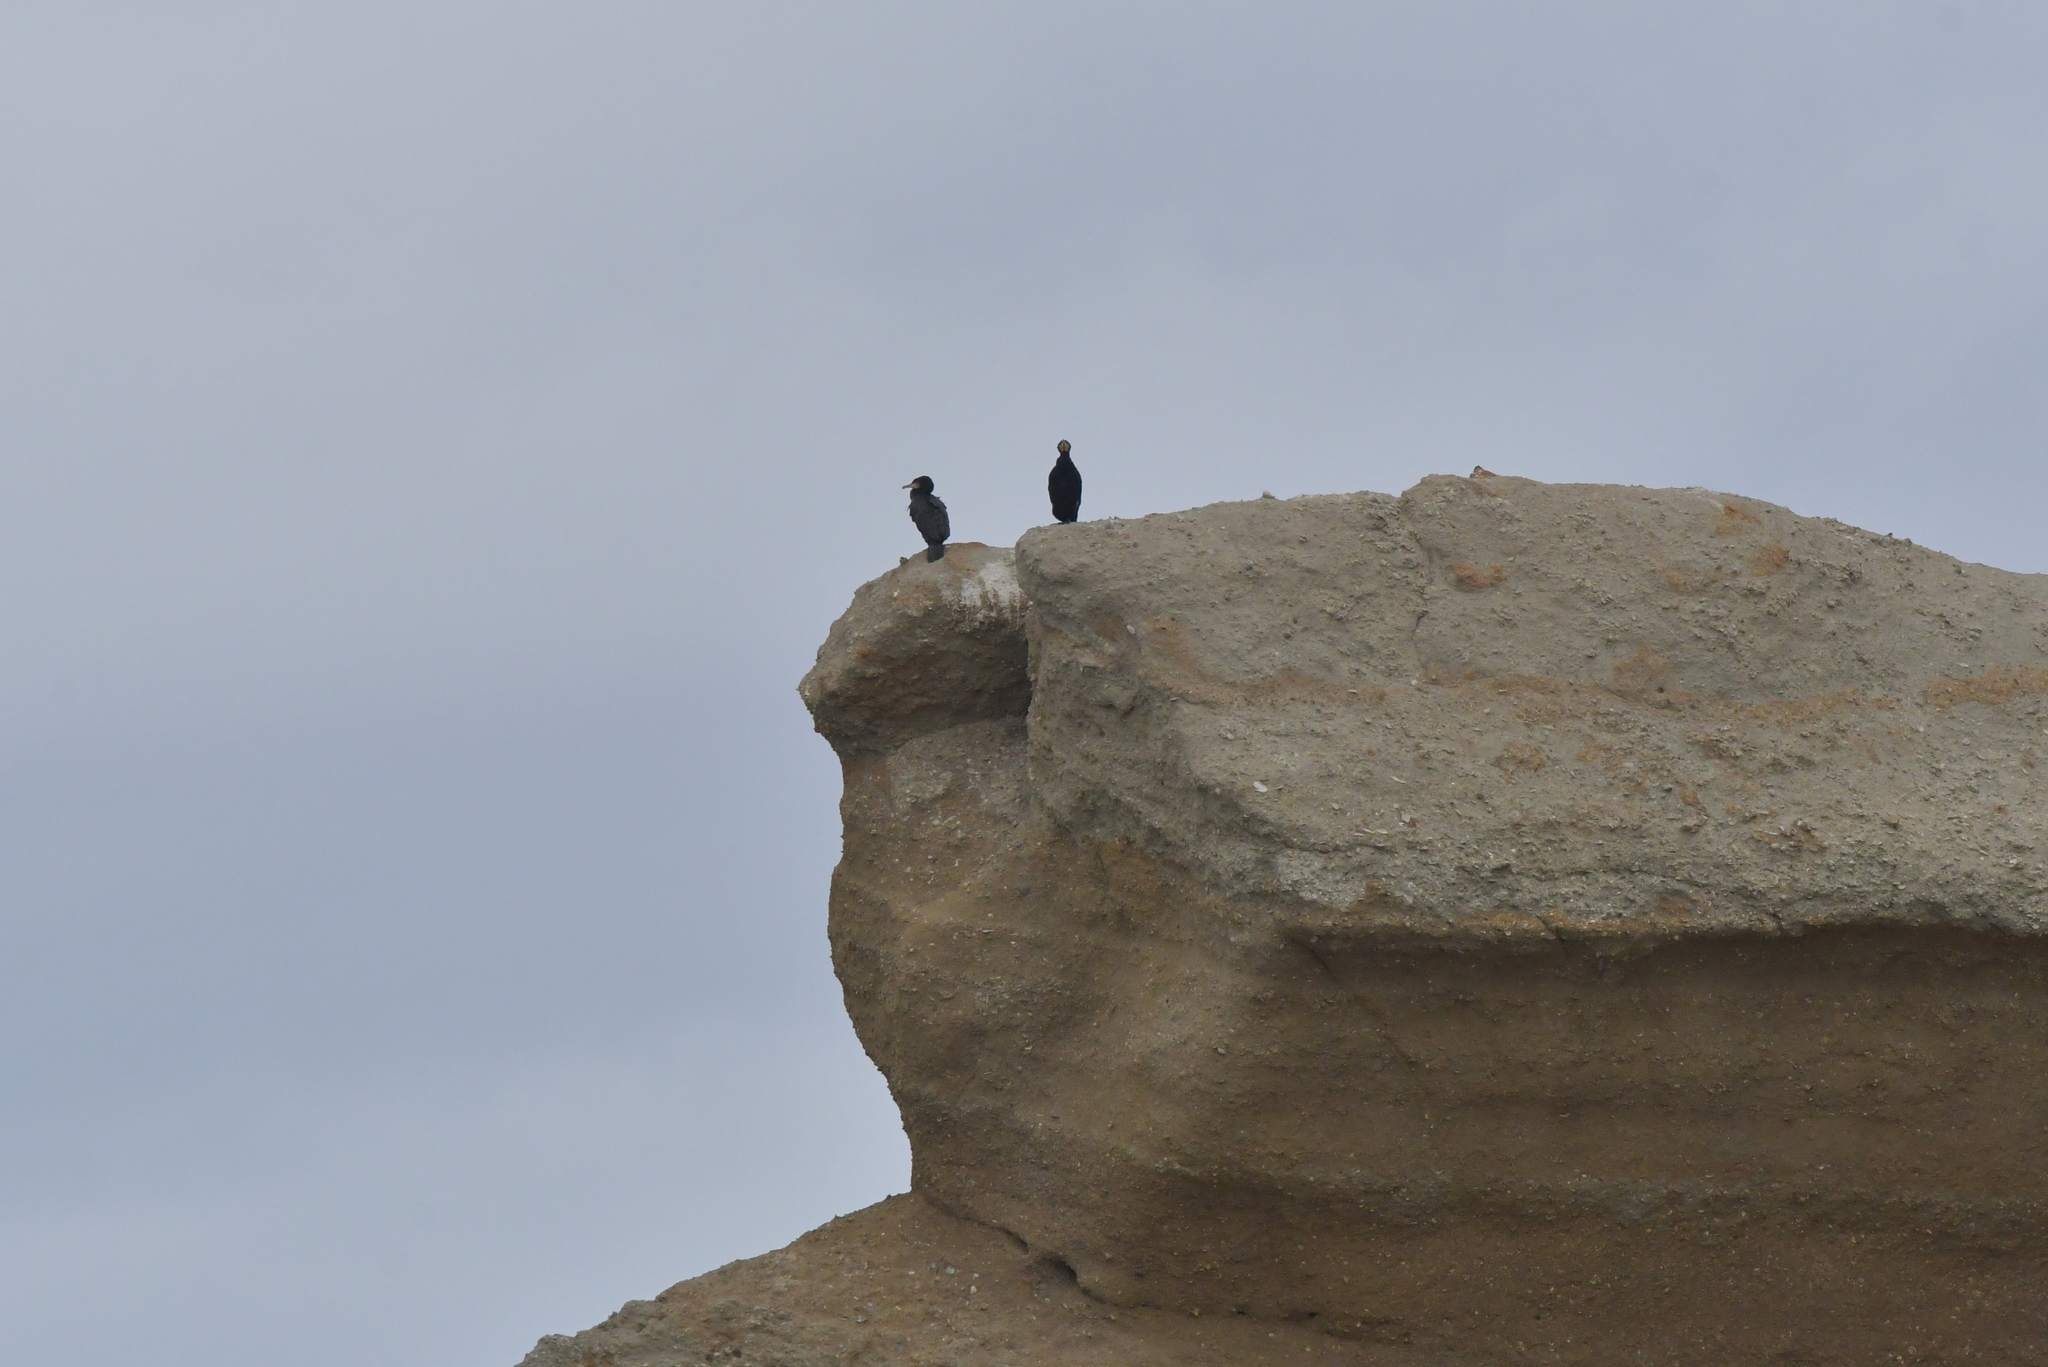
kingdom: Animalia
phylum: Chordata
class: Aves
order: Suliformes
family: Phalacrocoracidae
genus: Phalacrocorax
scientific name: Phalacrocorax carbo
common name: Great cormorant
